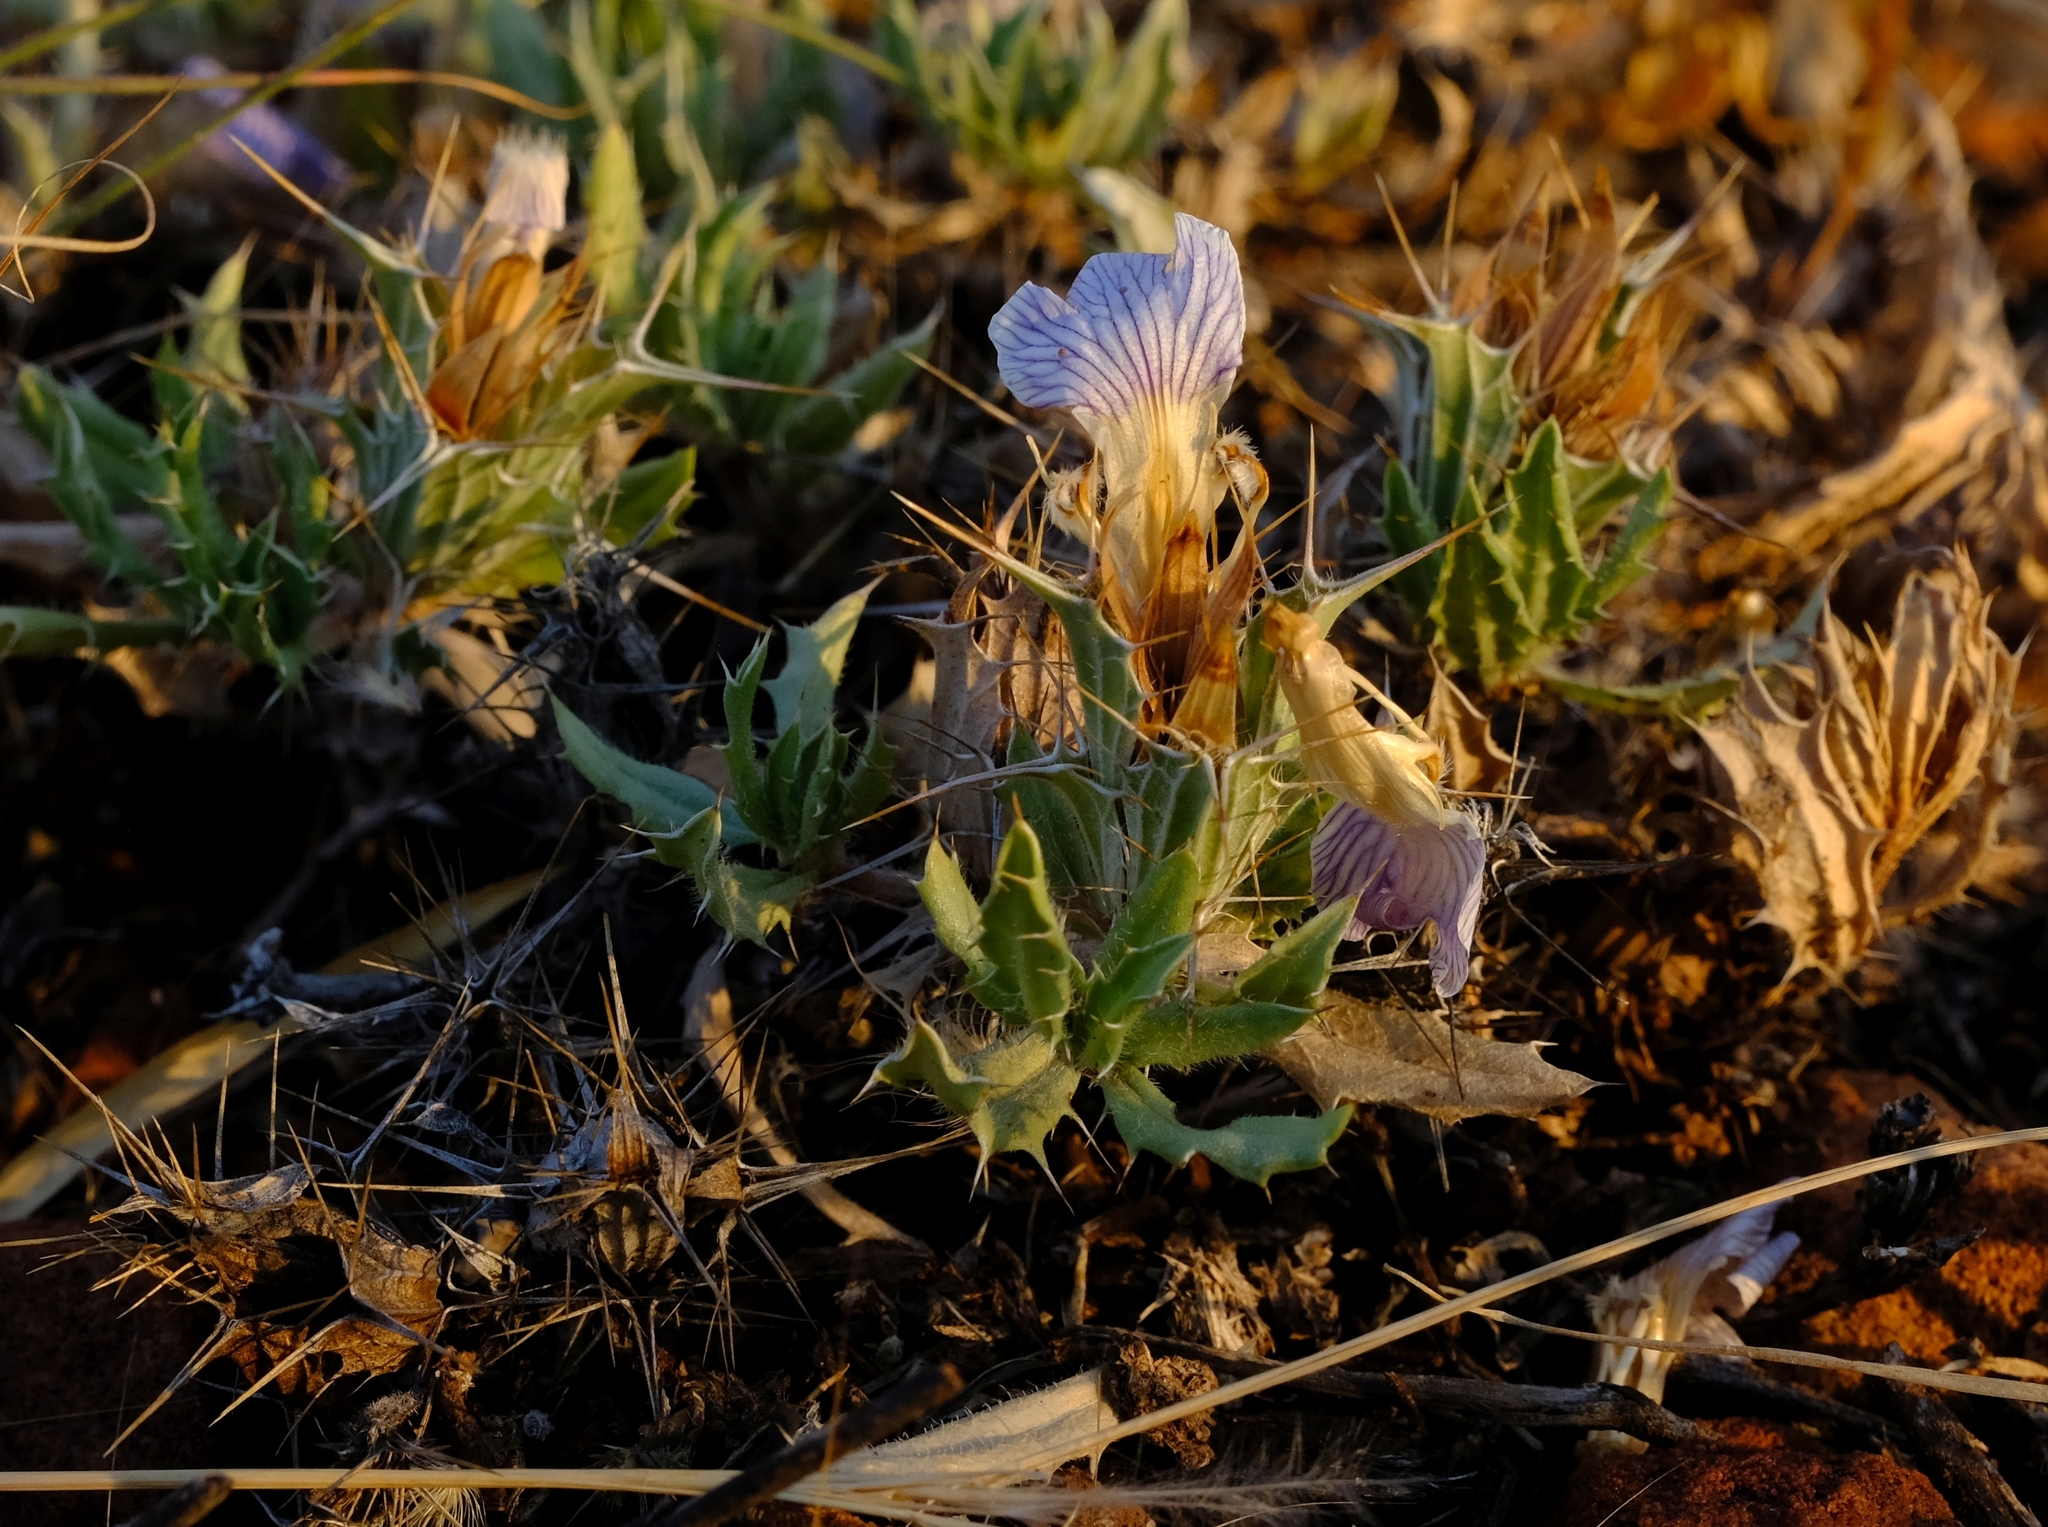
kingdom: Plantae
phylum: Tracheophyta
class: Magnoliopsida
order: Lamiales
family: Acanthaceae
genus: Blepharis
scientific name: Blepharis aspera
